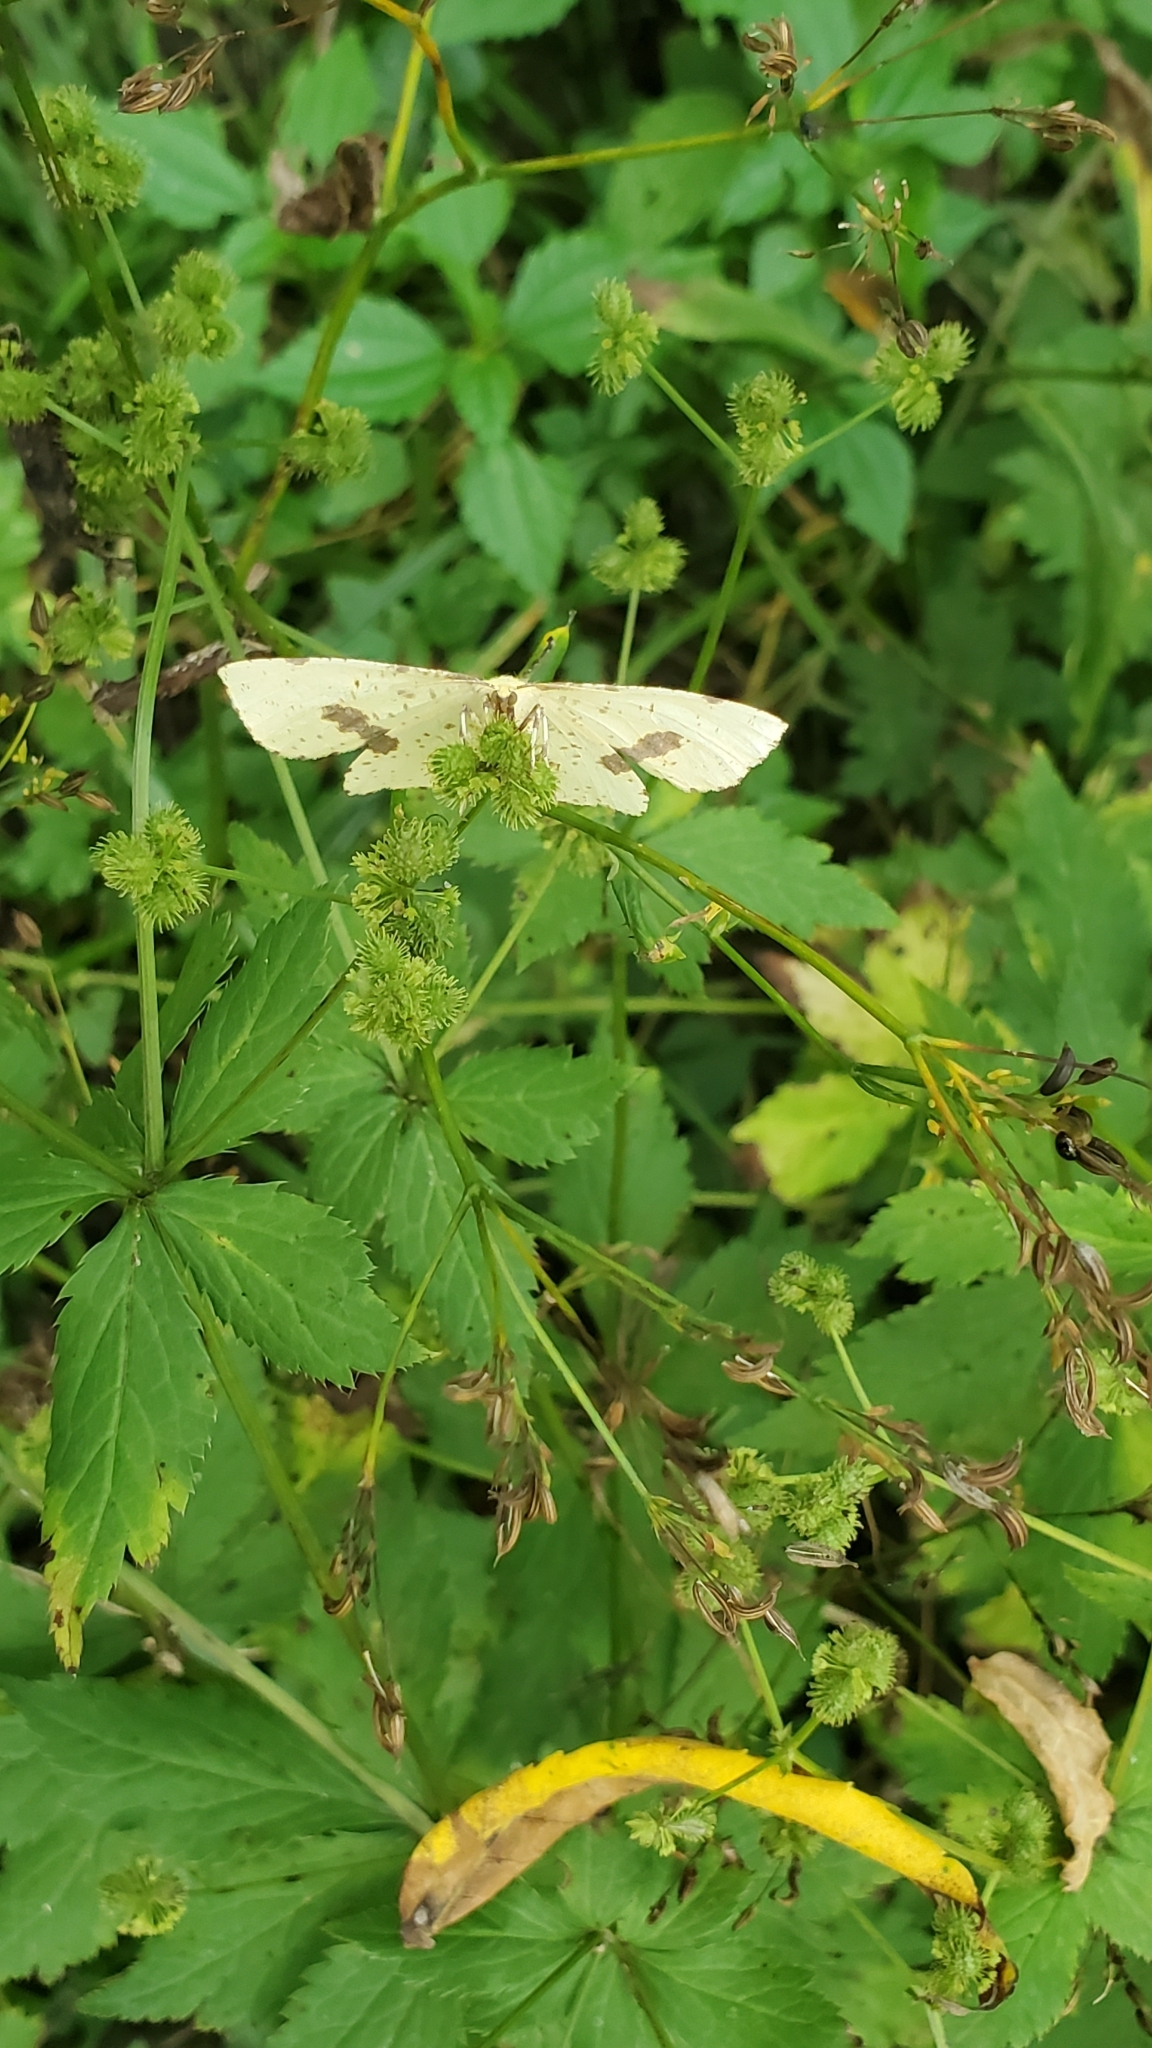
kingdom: Animalia
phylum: Arthropoda
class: Insecta
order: Lepidoptera
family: Geometridae
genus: Xanthotype
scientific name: Xanthotype
